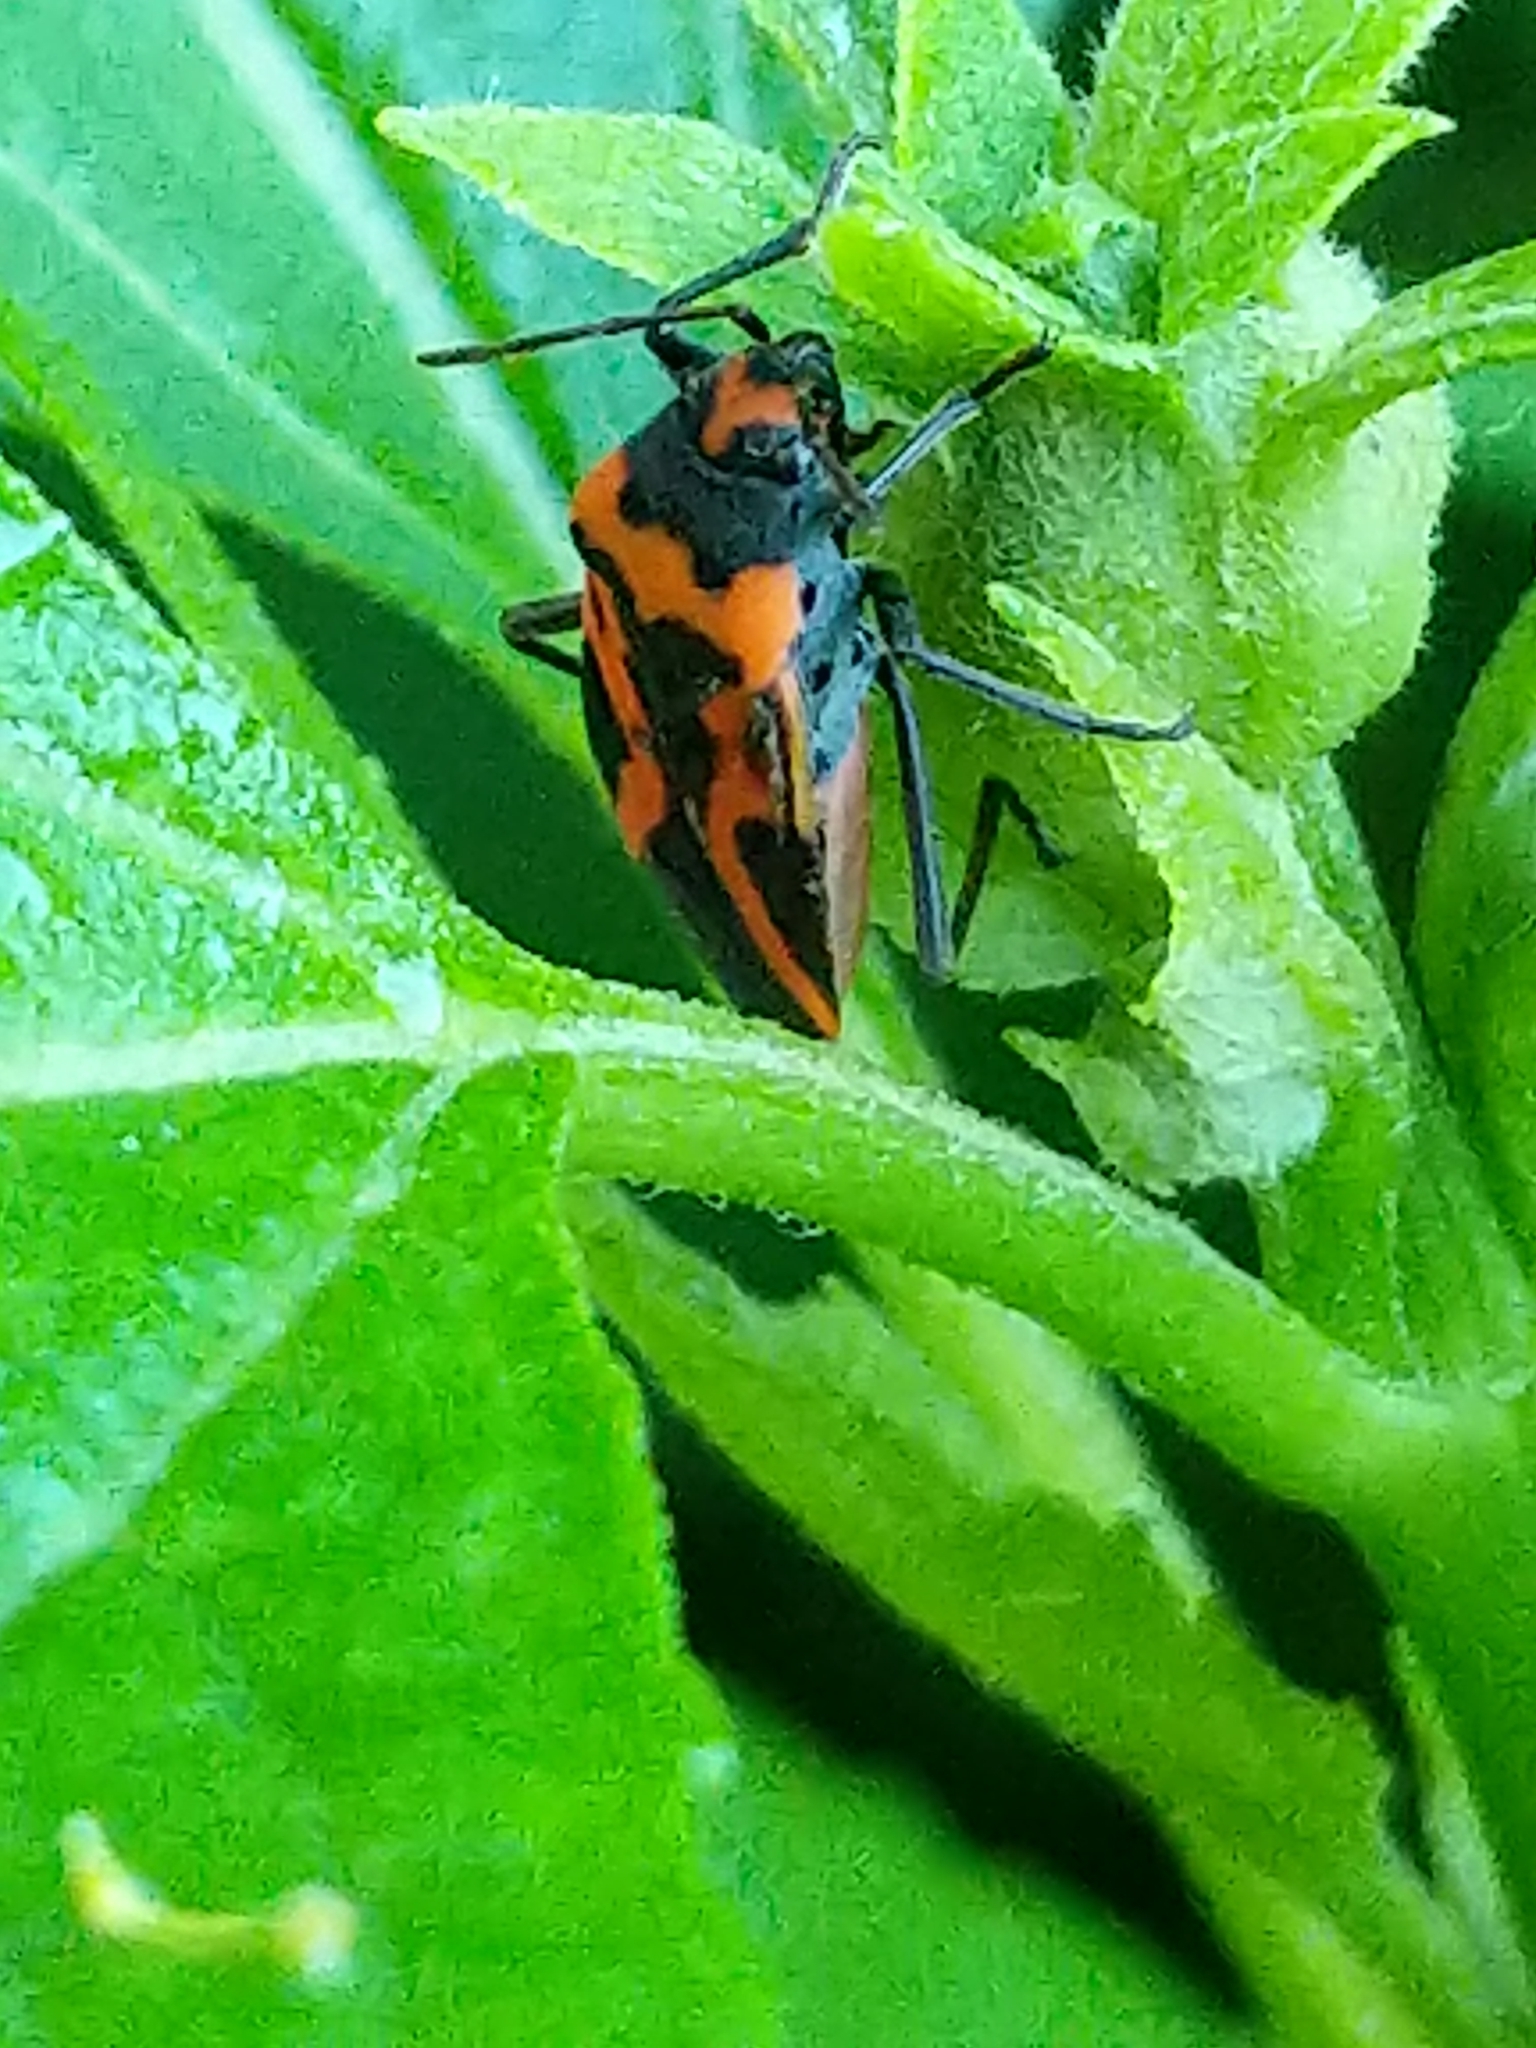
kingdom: Animalia
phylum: Arthropoda
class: Insecta
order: Hemiptera
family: Lygaeidae
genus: Lygaeus
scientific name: Lygaeus turcicus
